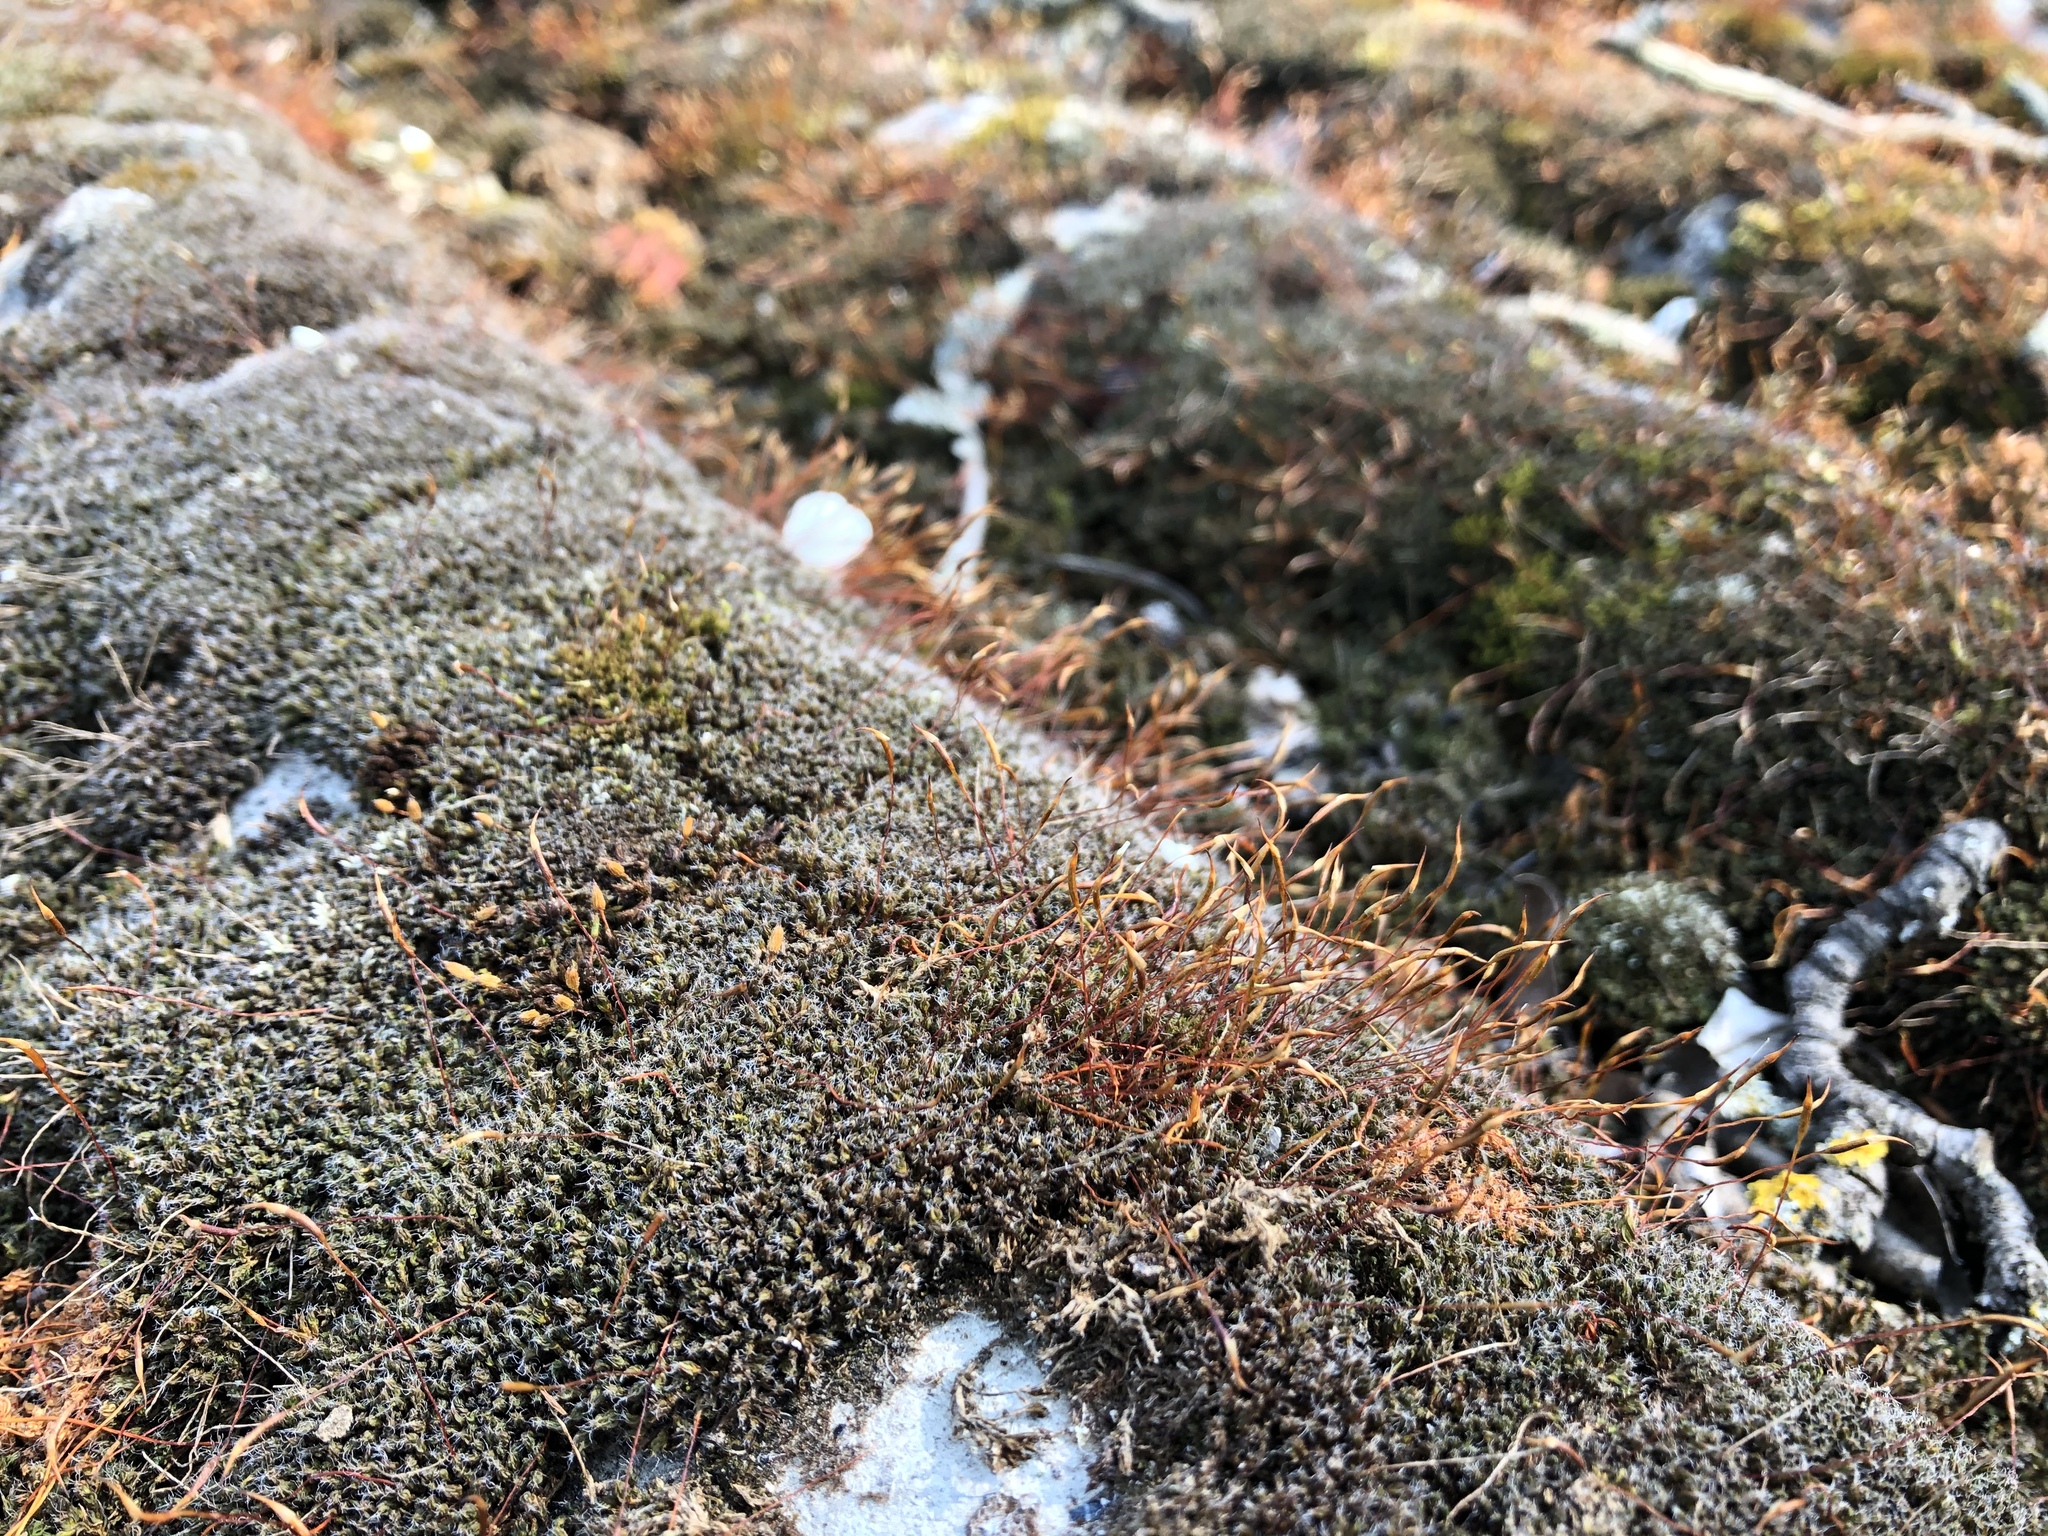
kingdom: Plantae
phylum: Bryophyta
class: Bryopsida
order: Dicranales
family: Ditrichaceae
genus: Ceratodon
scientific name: Ceratodon purpureus
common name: Redshank
